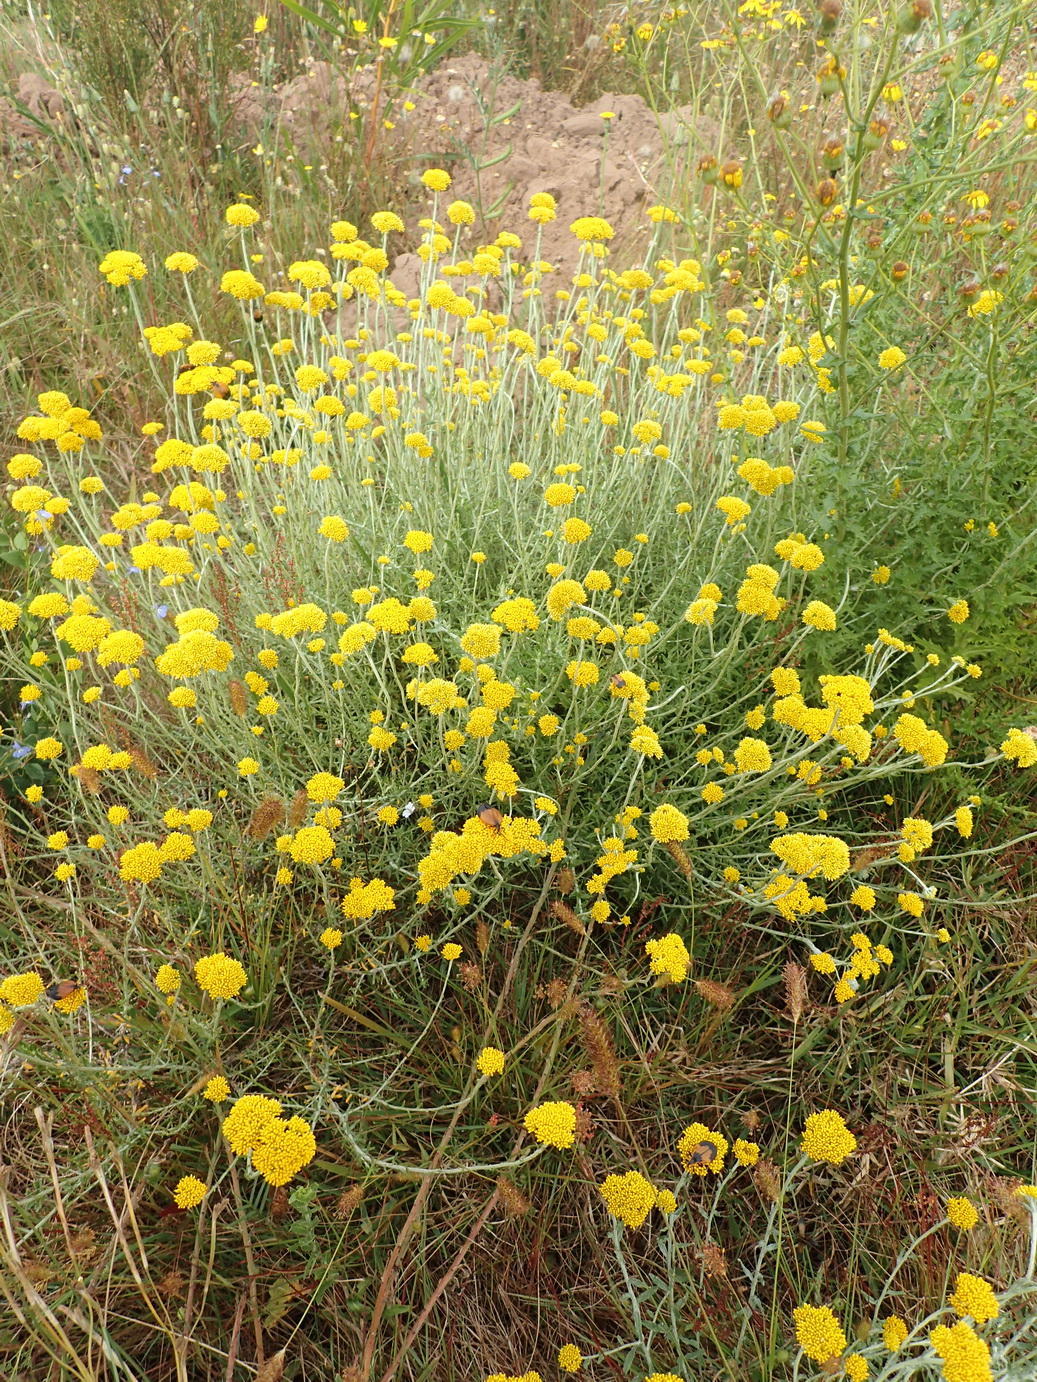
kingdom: Plantae
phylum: Tracheophyta
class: Magnoliopsida
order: Asterales
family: Asteraceae
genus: Helichrysum
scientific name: Helichrysum cymosum
